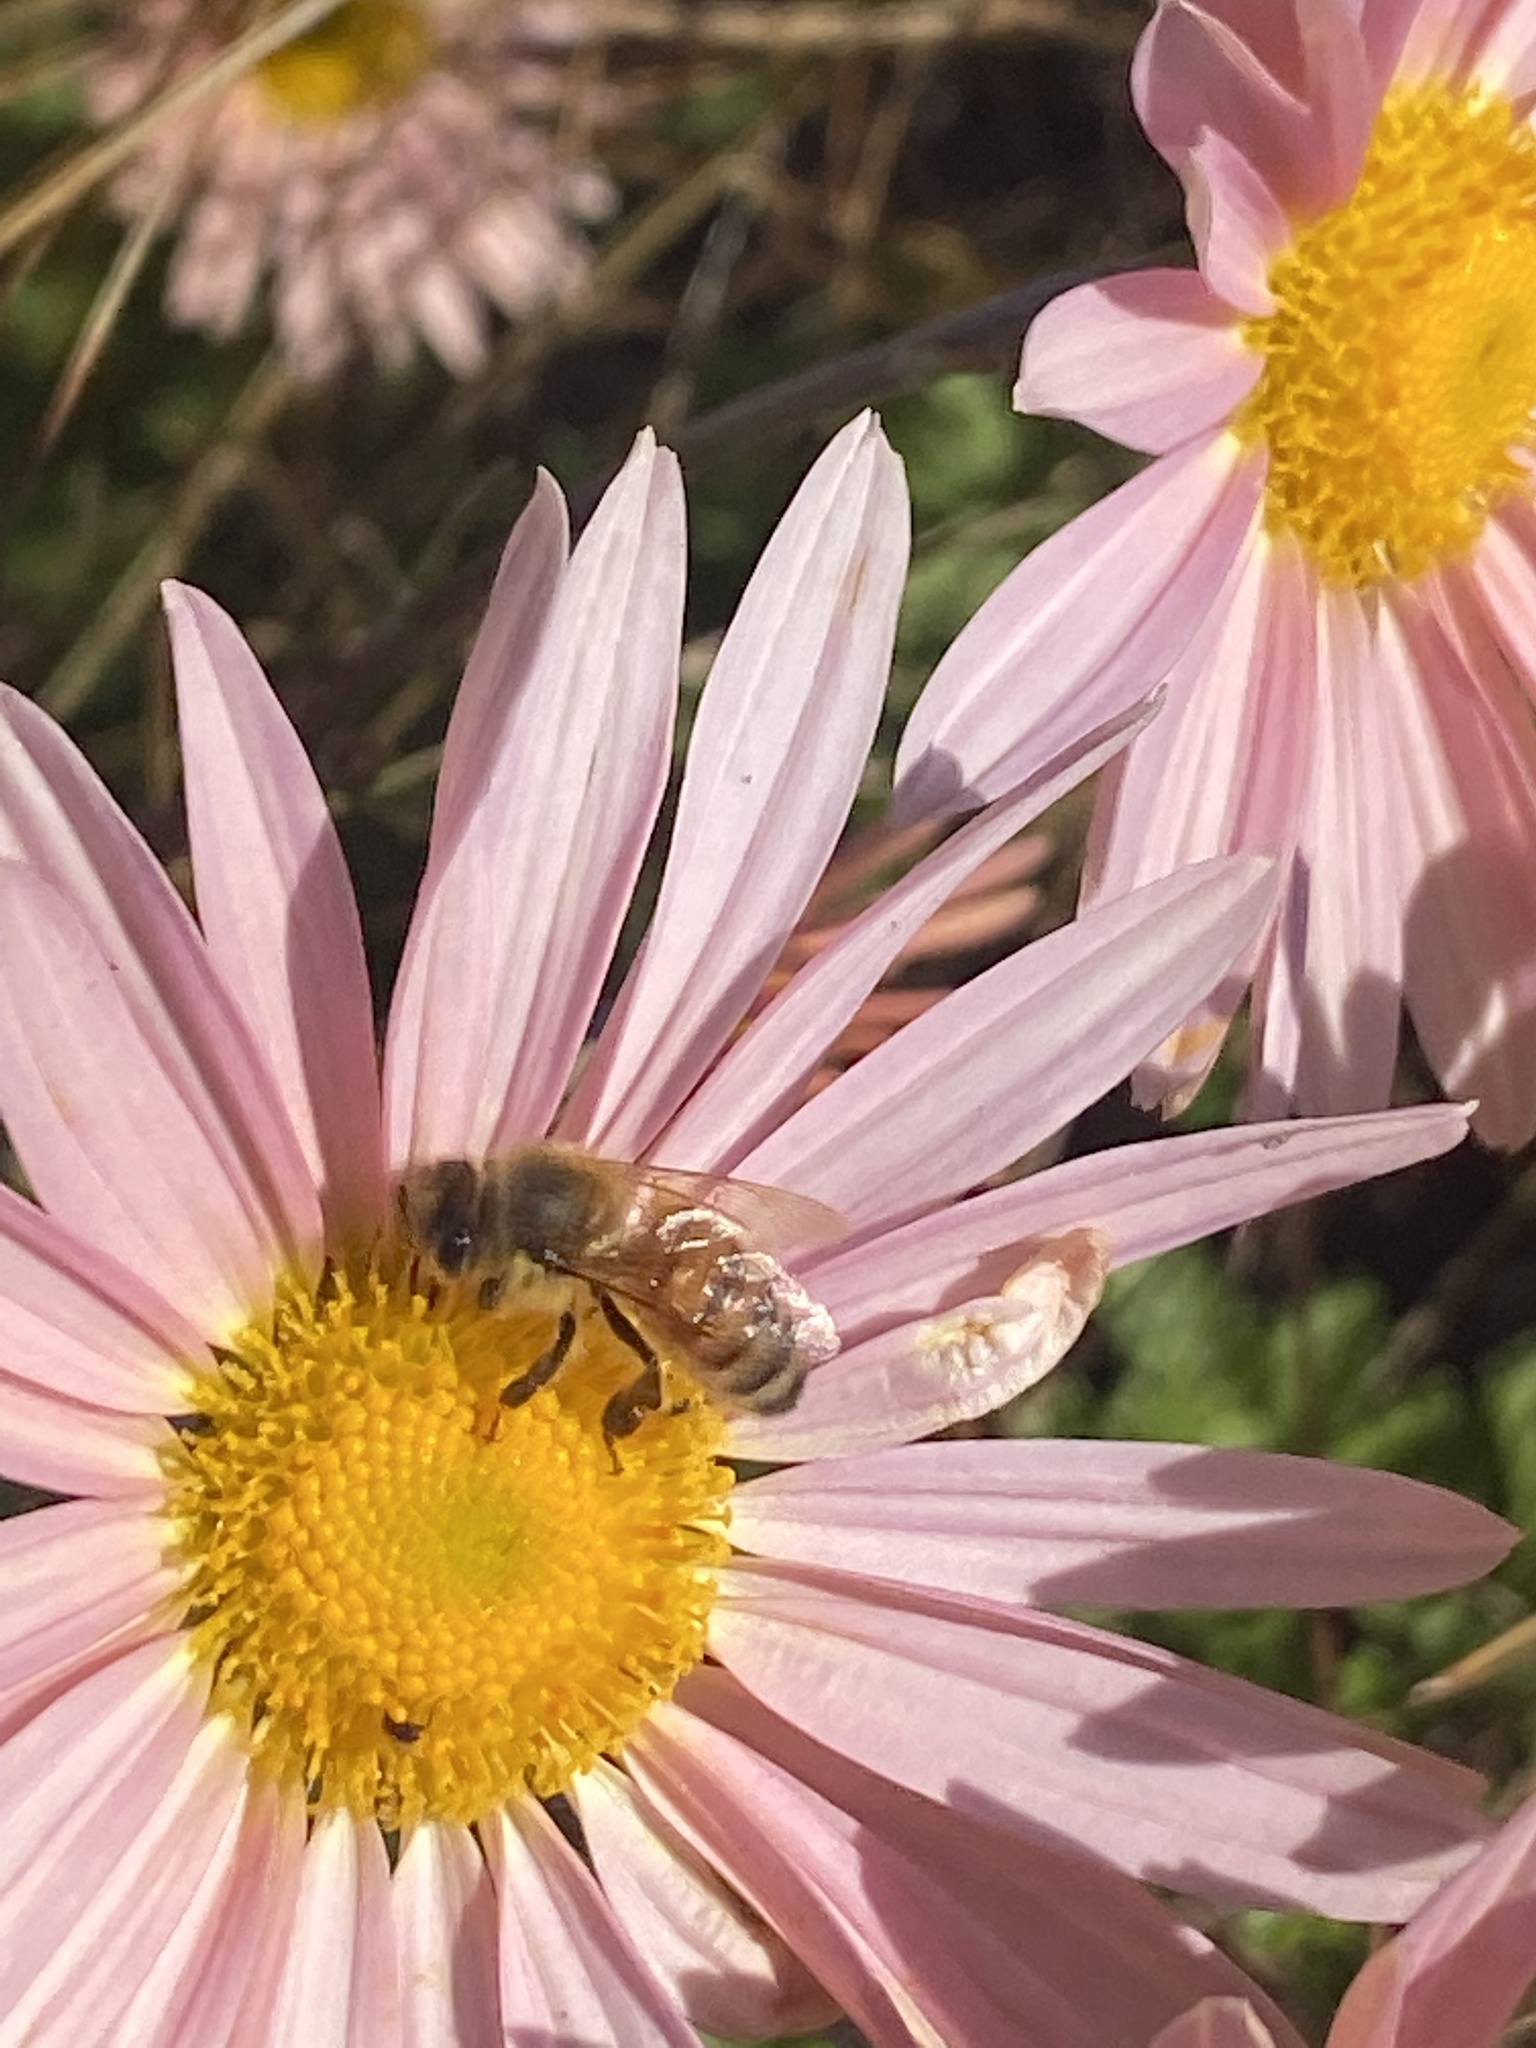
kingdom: Animalia
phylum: Arthropoda
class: Insecta
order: Hymenoptera
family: Apidae
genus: Apis
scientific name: Apis mellifera
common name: Honey bee
